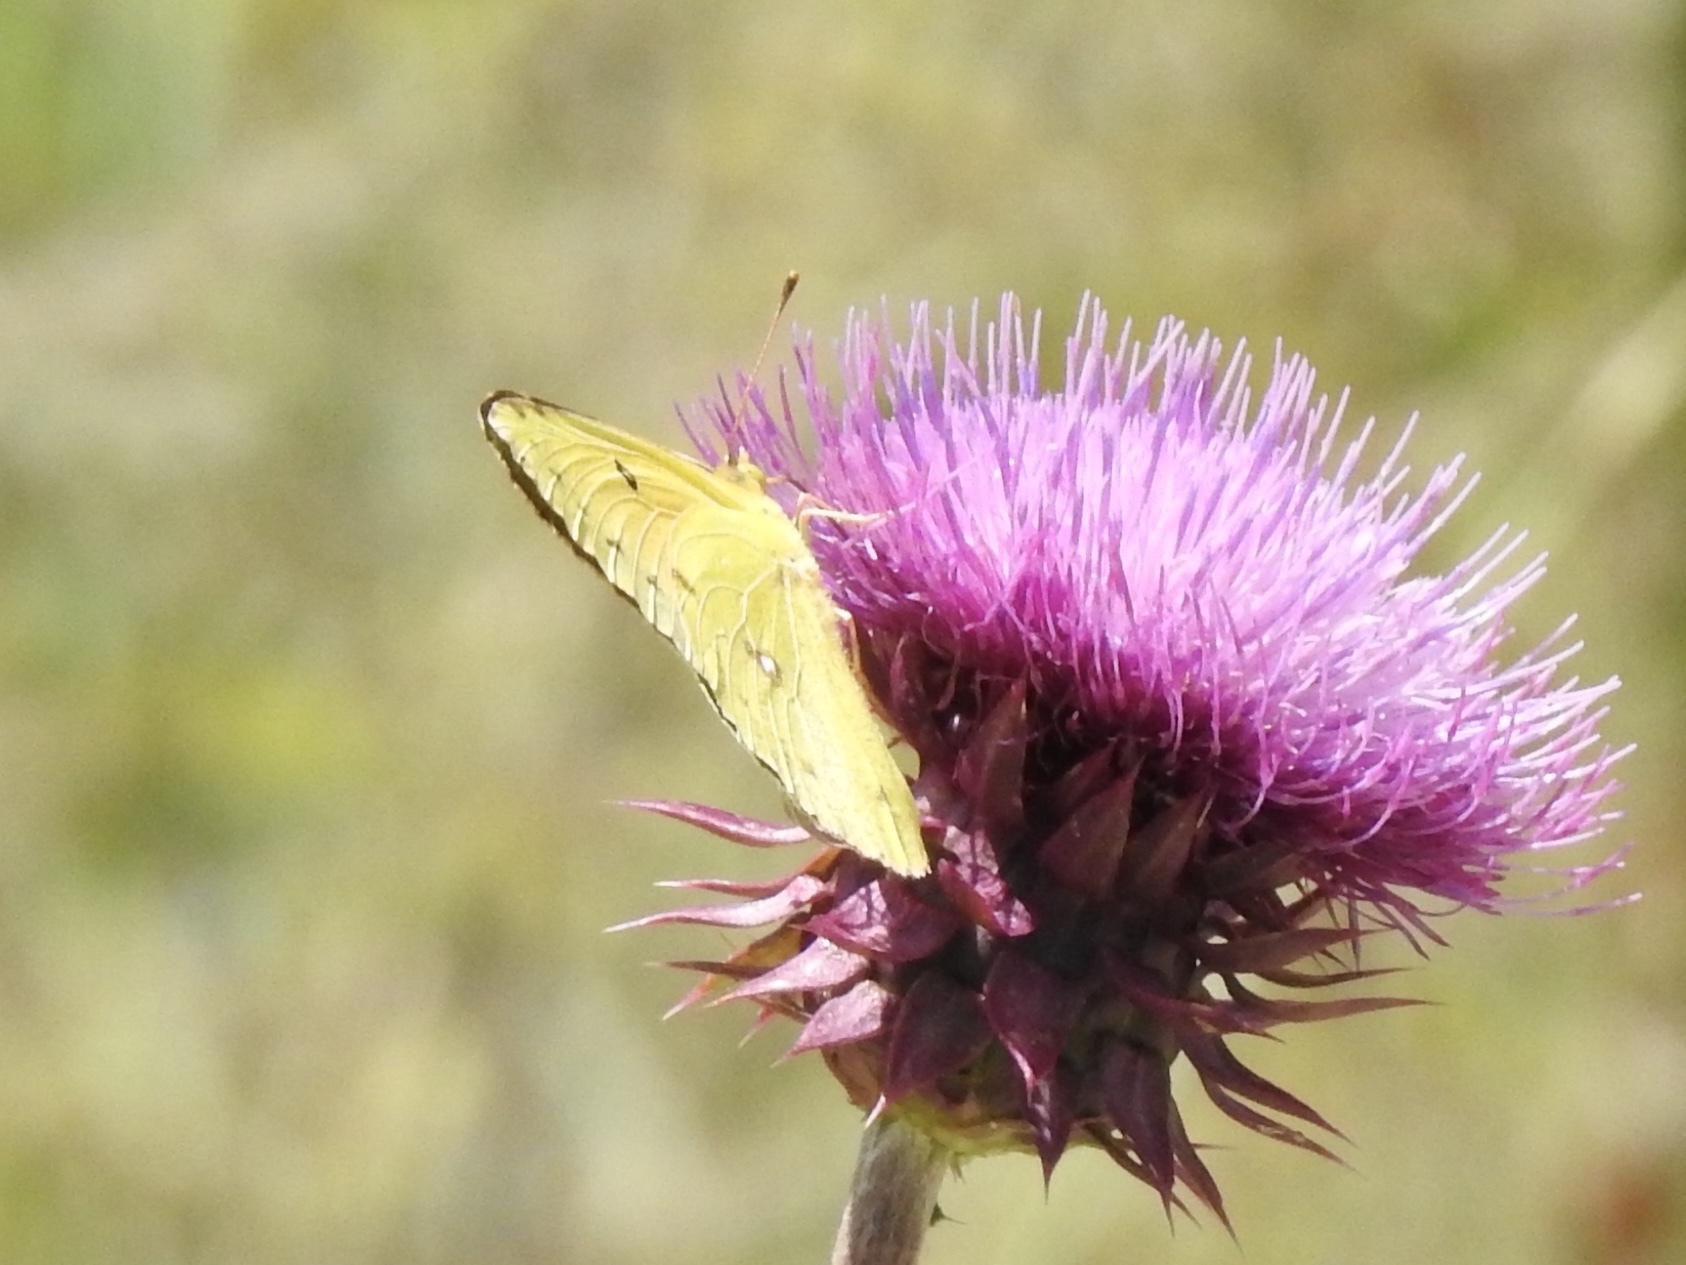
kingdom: Animalia
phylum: Arthropoda
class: Insecta
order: Lepidoptera
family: Pieridae
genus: Colias
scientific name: Colias eurytheme
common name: Alfalfa butterfly
